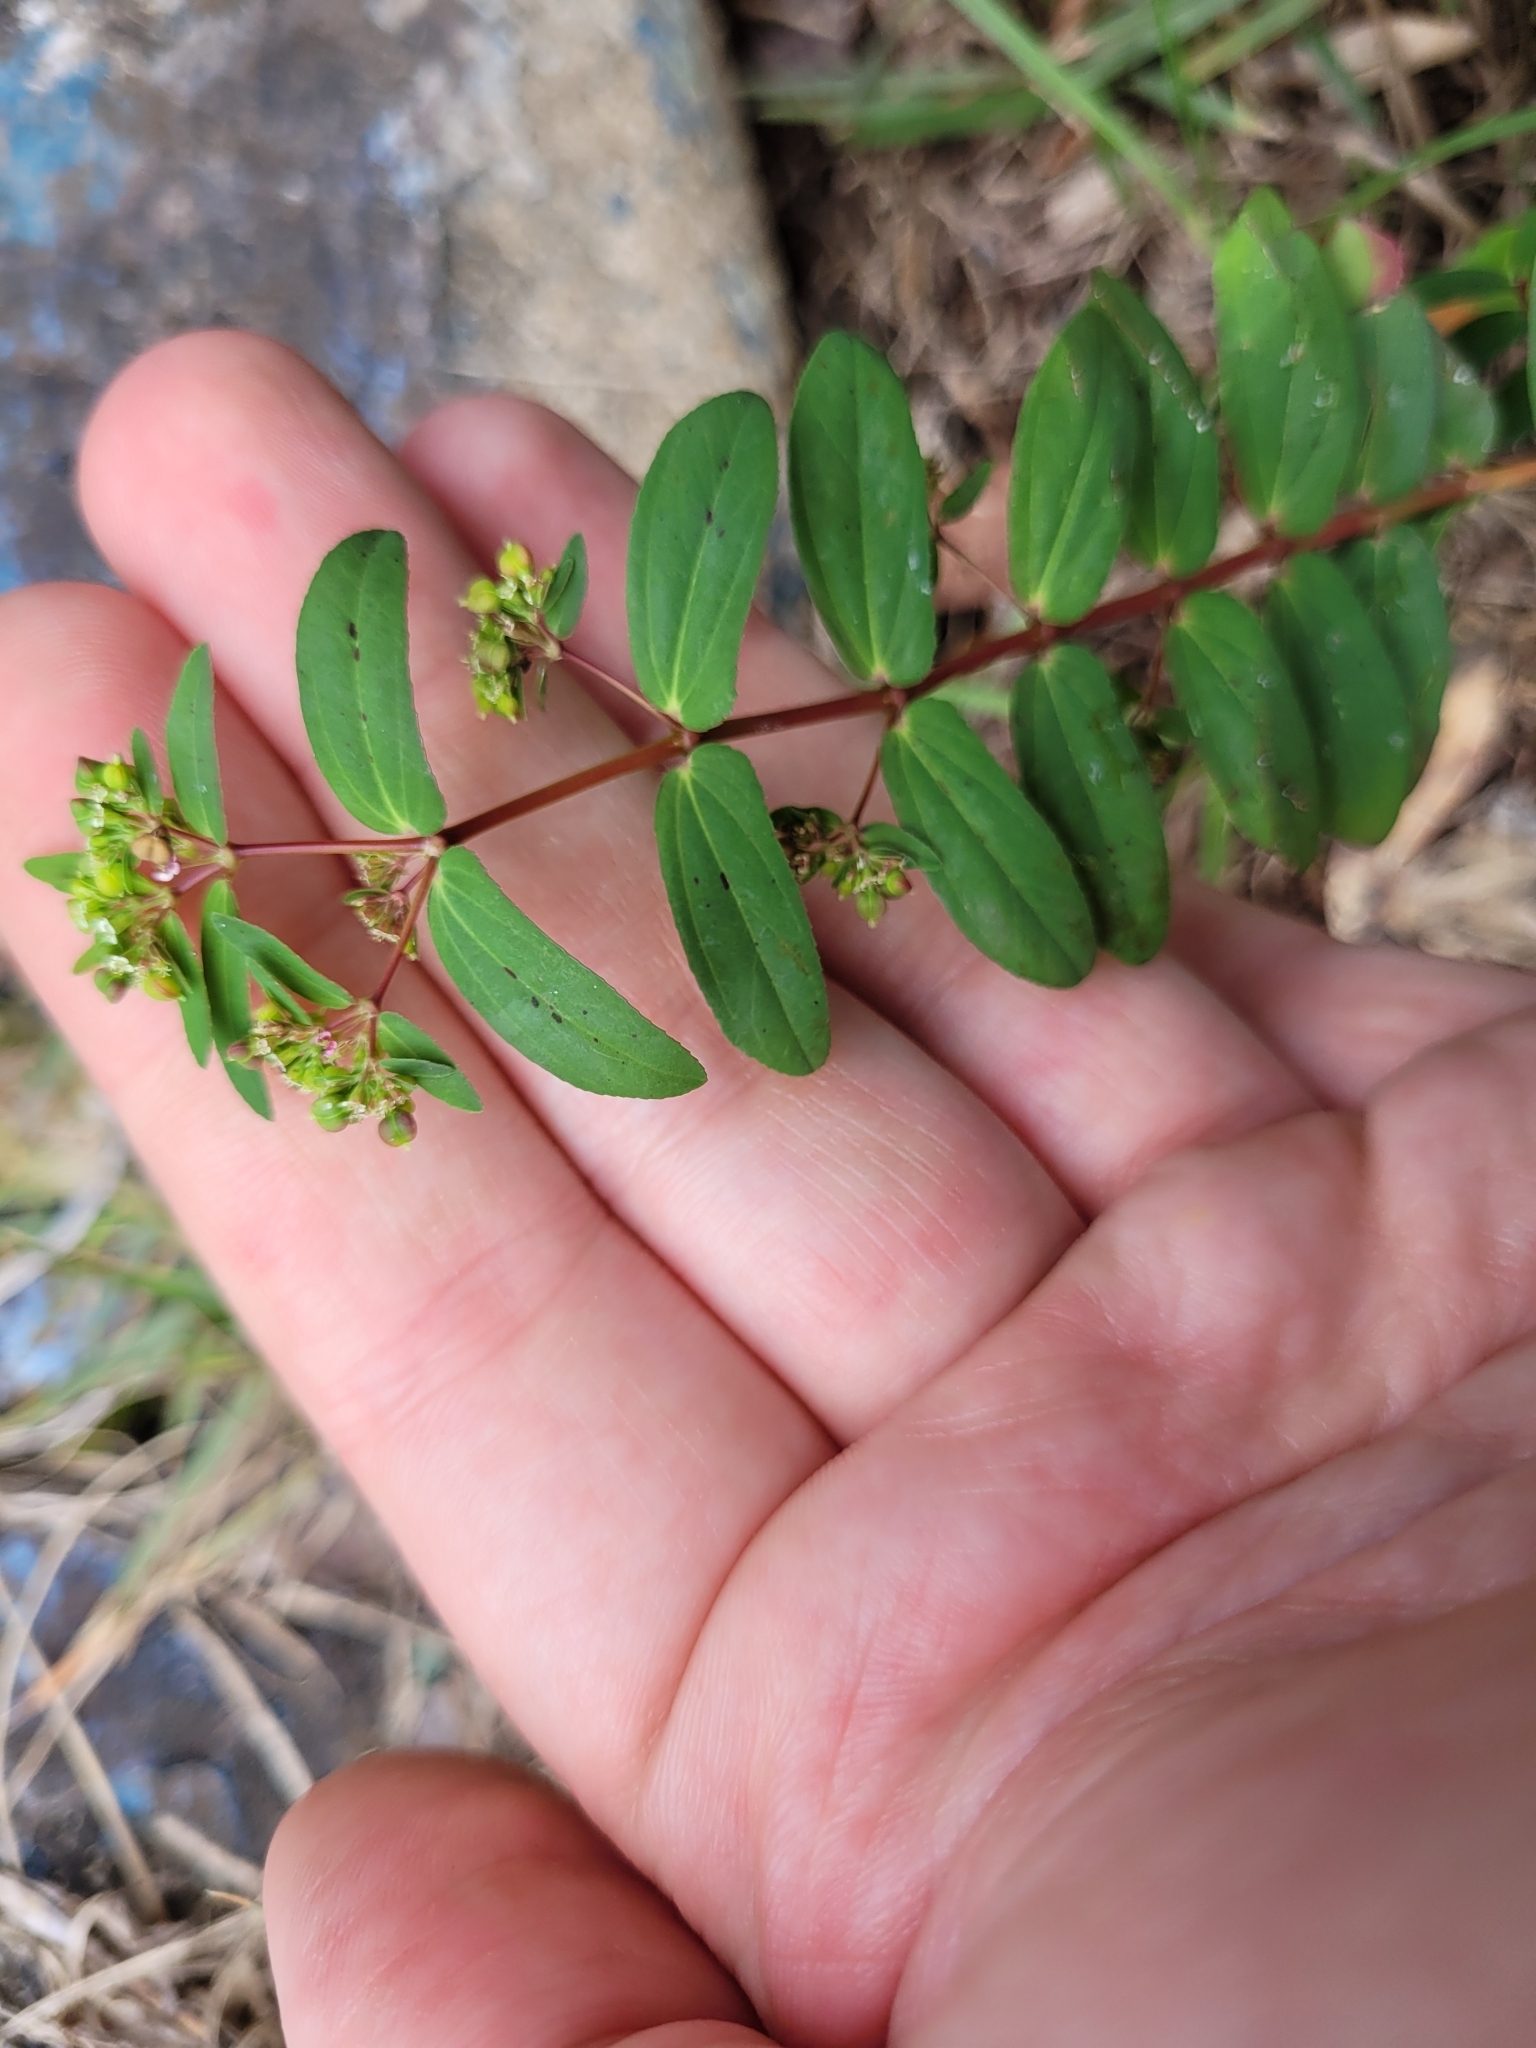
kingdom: Plantae
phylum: Tracheophyta
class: Magnoliopsida
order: Malpighiales
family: Euphorbiaceae
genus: Euphorbia
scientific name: Euphorbia hyssopifolia
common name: Hyssopleaf sandmat
